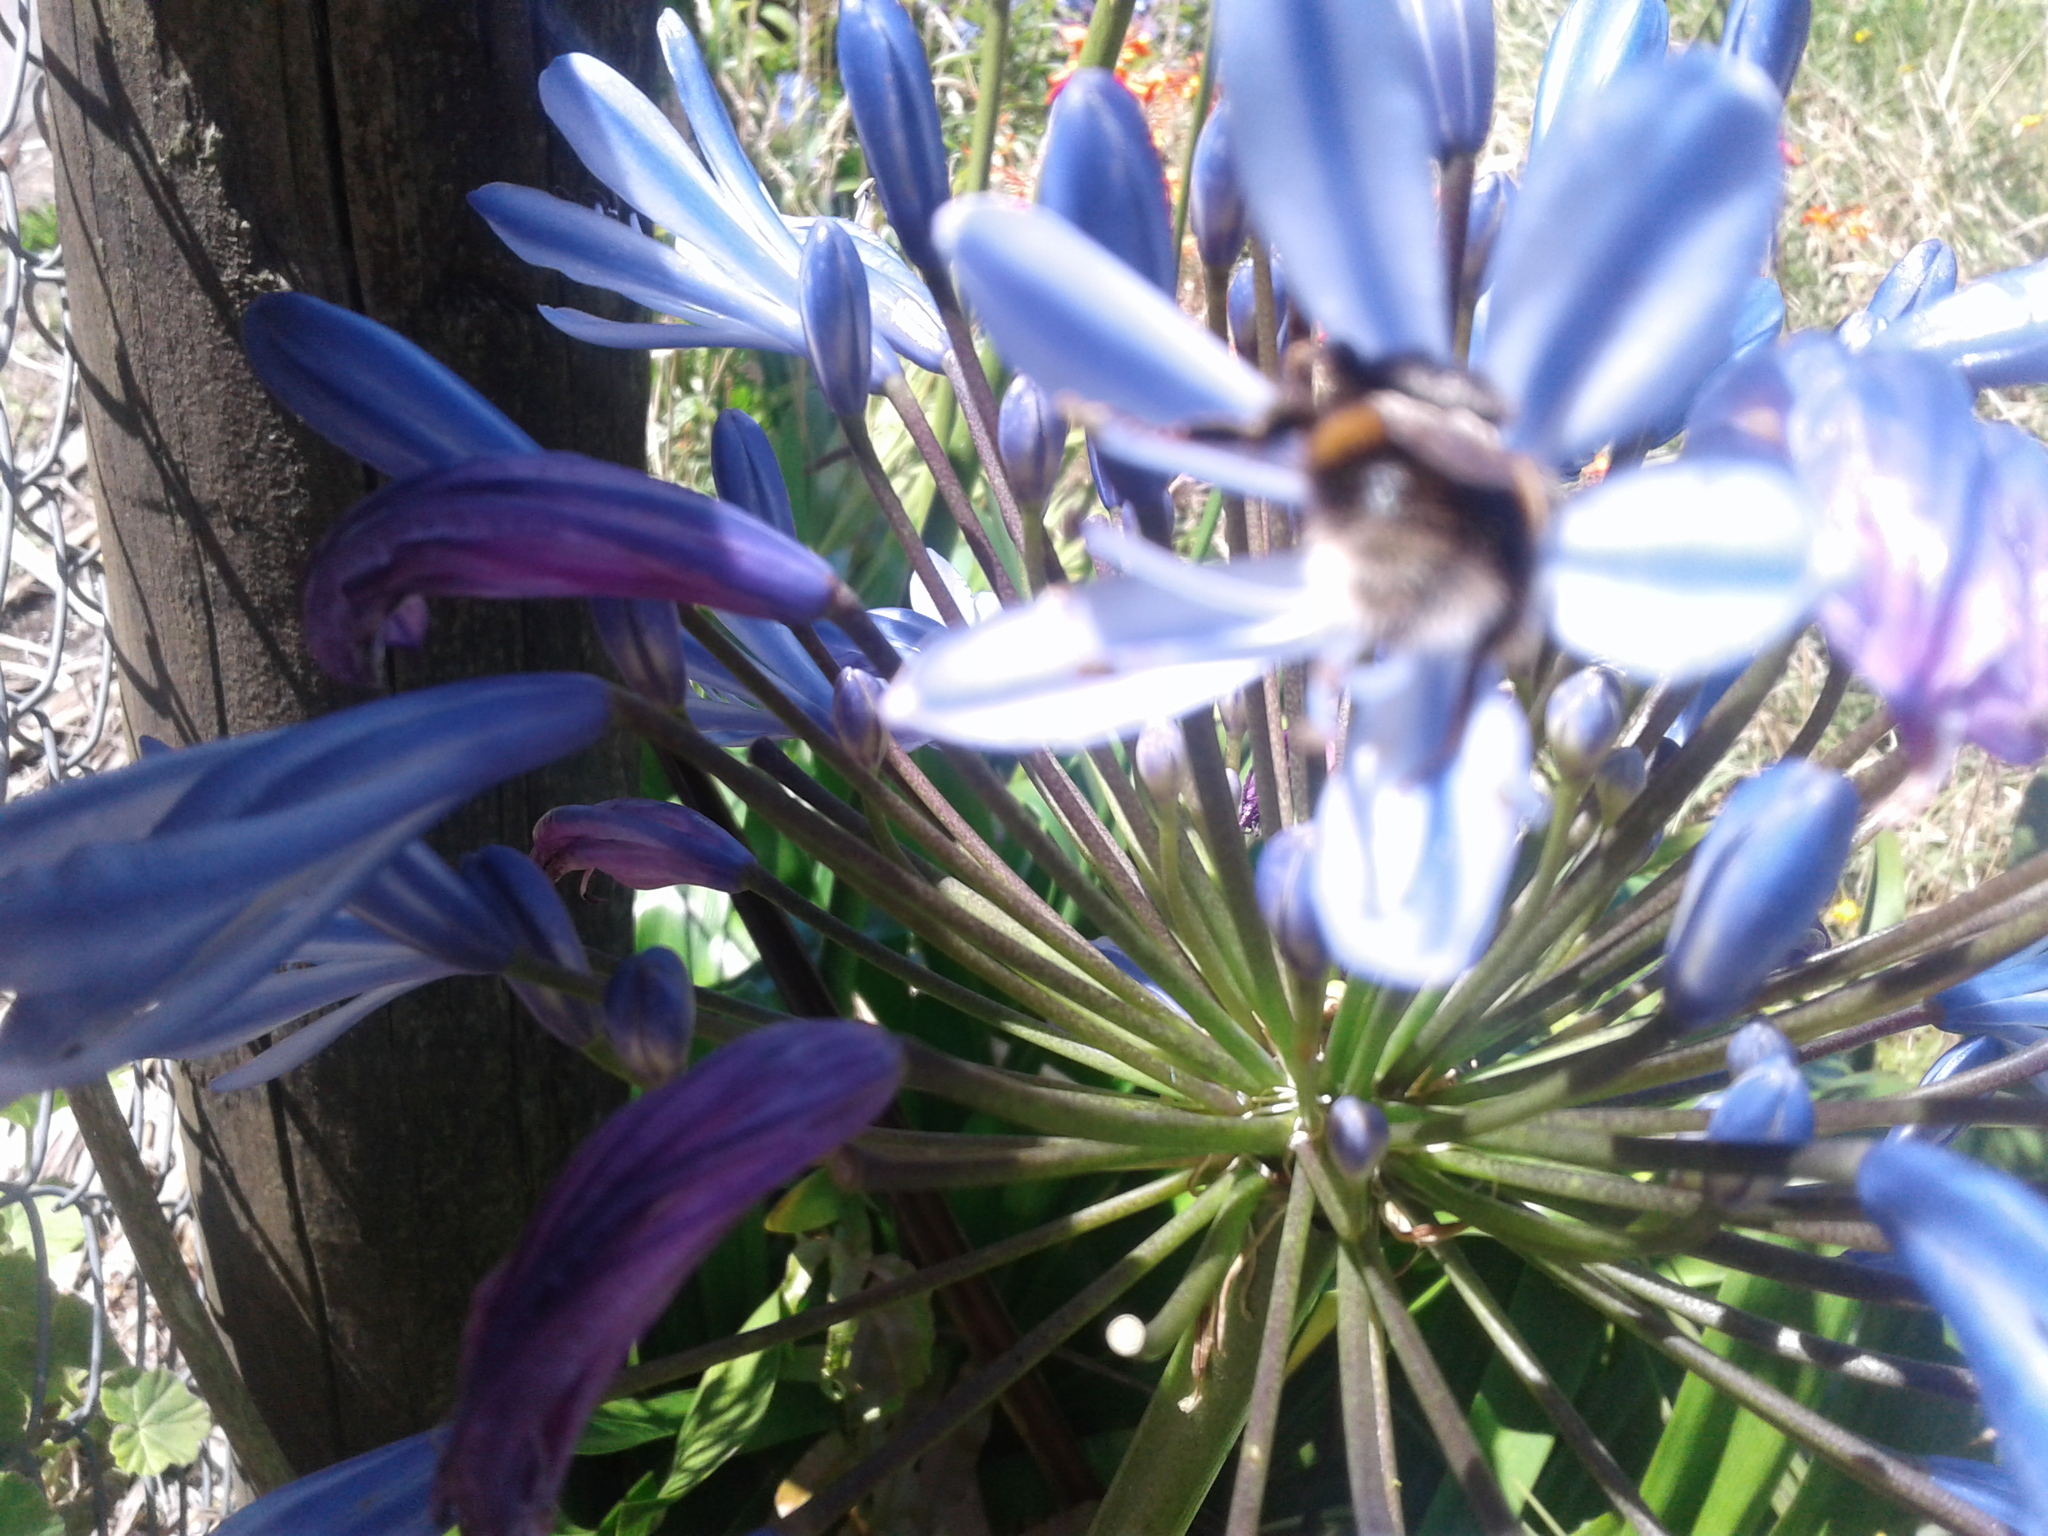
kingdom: Animalia
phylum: Arthropoda
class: Insecta
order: Hymenoptera
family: Apidae
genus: Bombus
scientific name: Bombus terrestris
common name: Buff-tailed bumblebee
